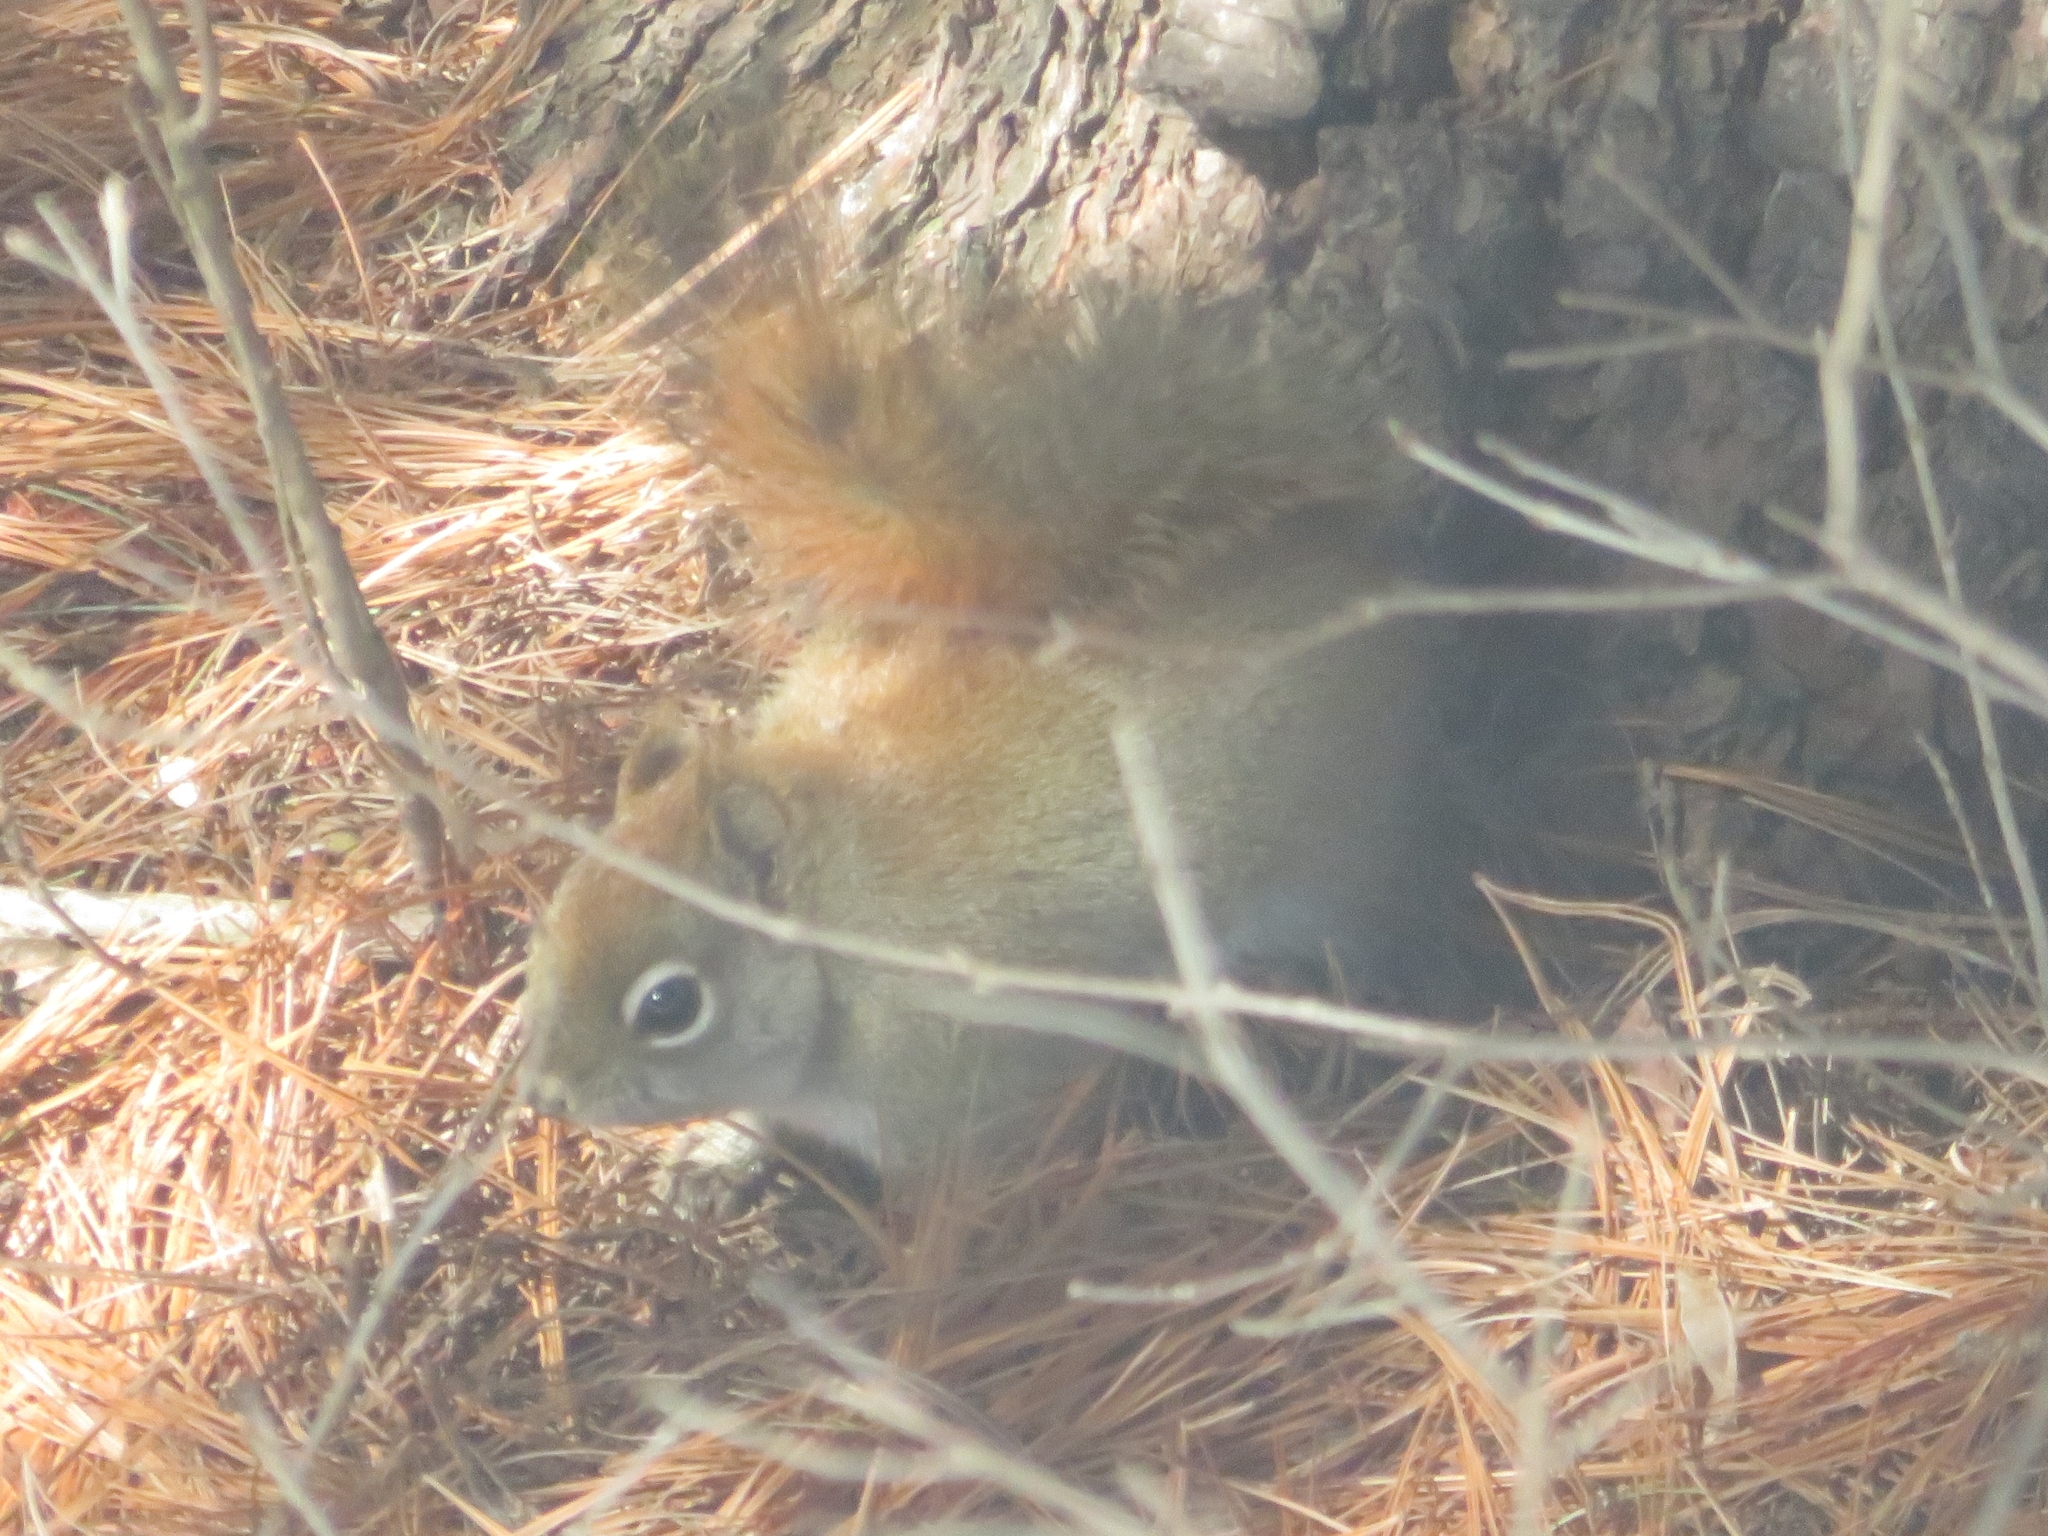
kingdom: Animalia
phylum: Chordata
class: Mammalia
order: Rodentia
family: Sciuridae
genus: Tamiasciurus
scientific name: Tamiasciurus hudsonicus
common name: Red squirrel
